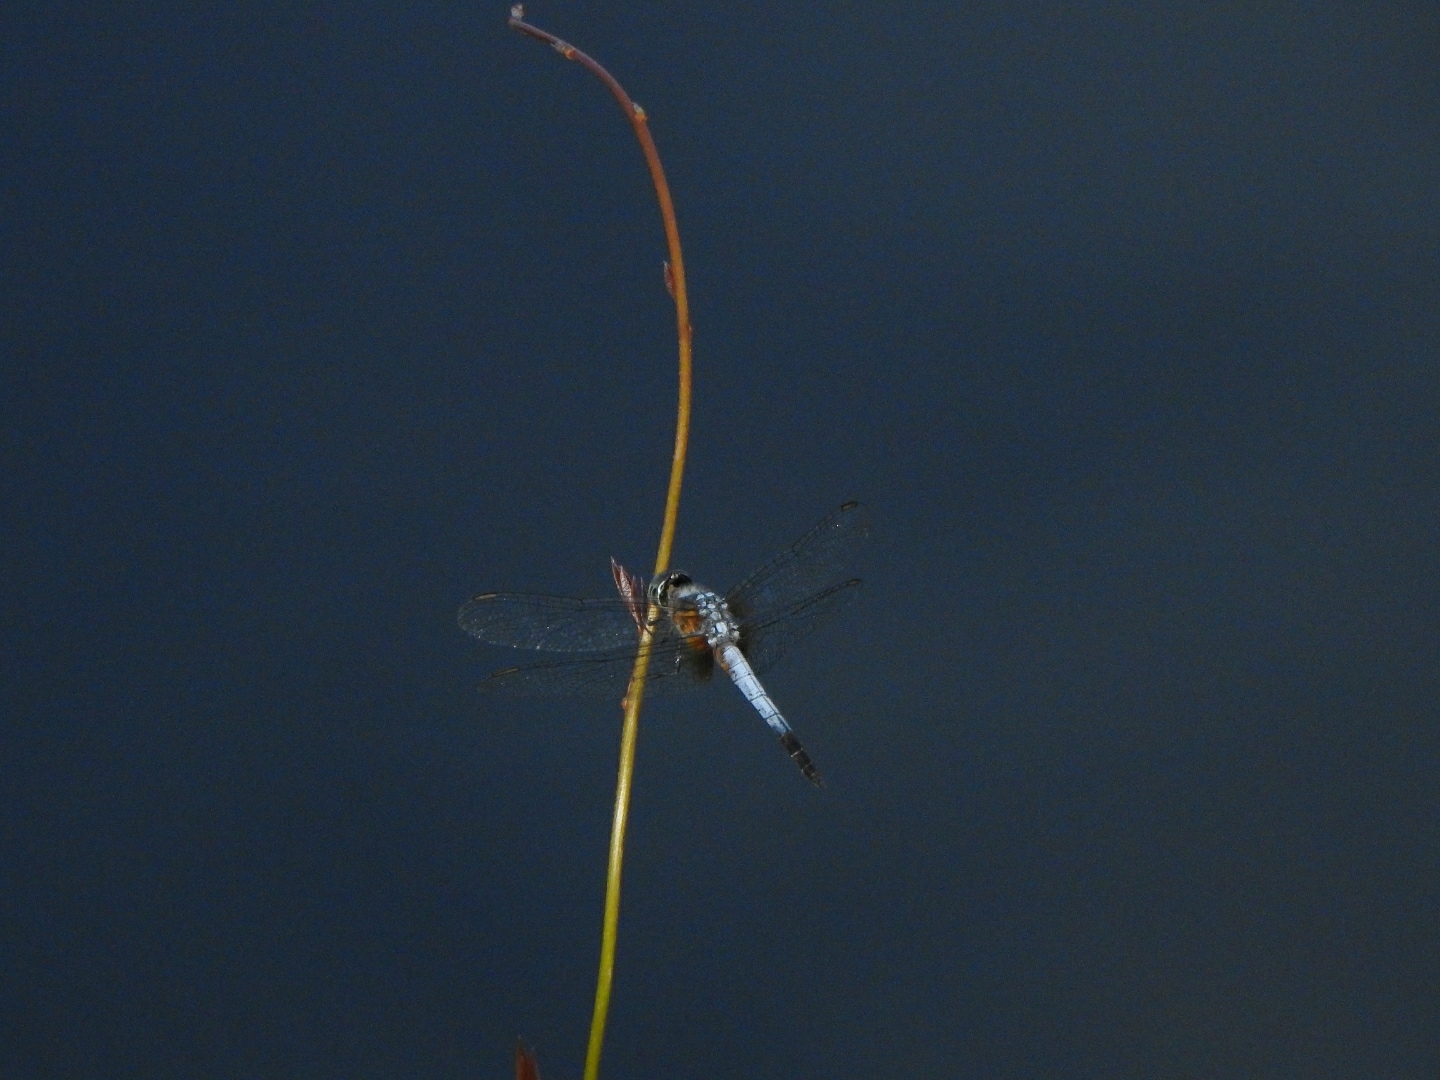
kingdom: Animalia
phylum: Arthropoda
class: Insecta
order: Odonata
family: Libellulidae
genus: Brachydiplax
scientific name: Brachydiplax chalybea
